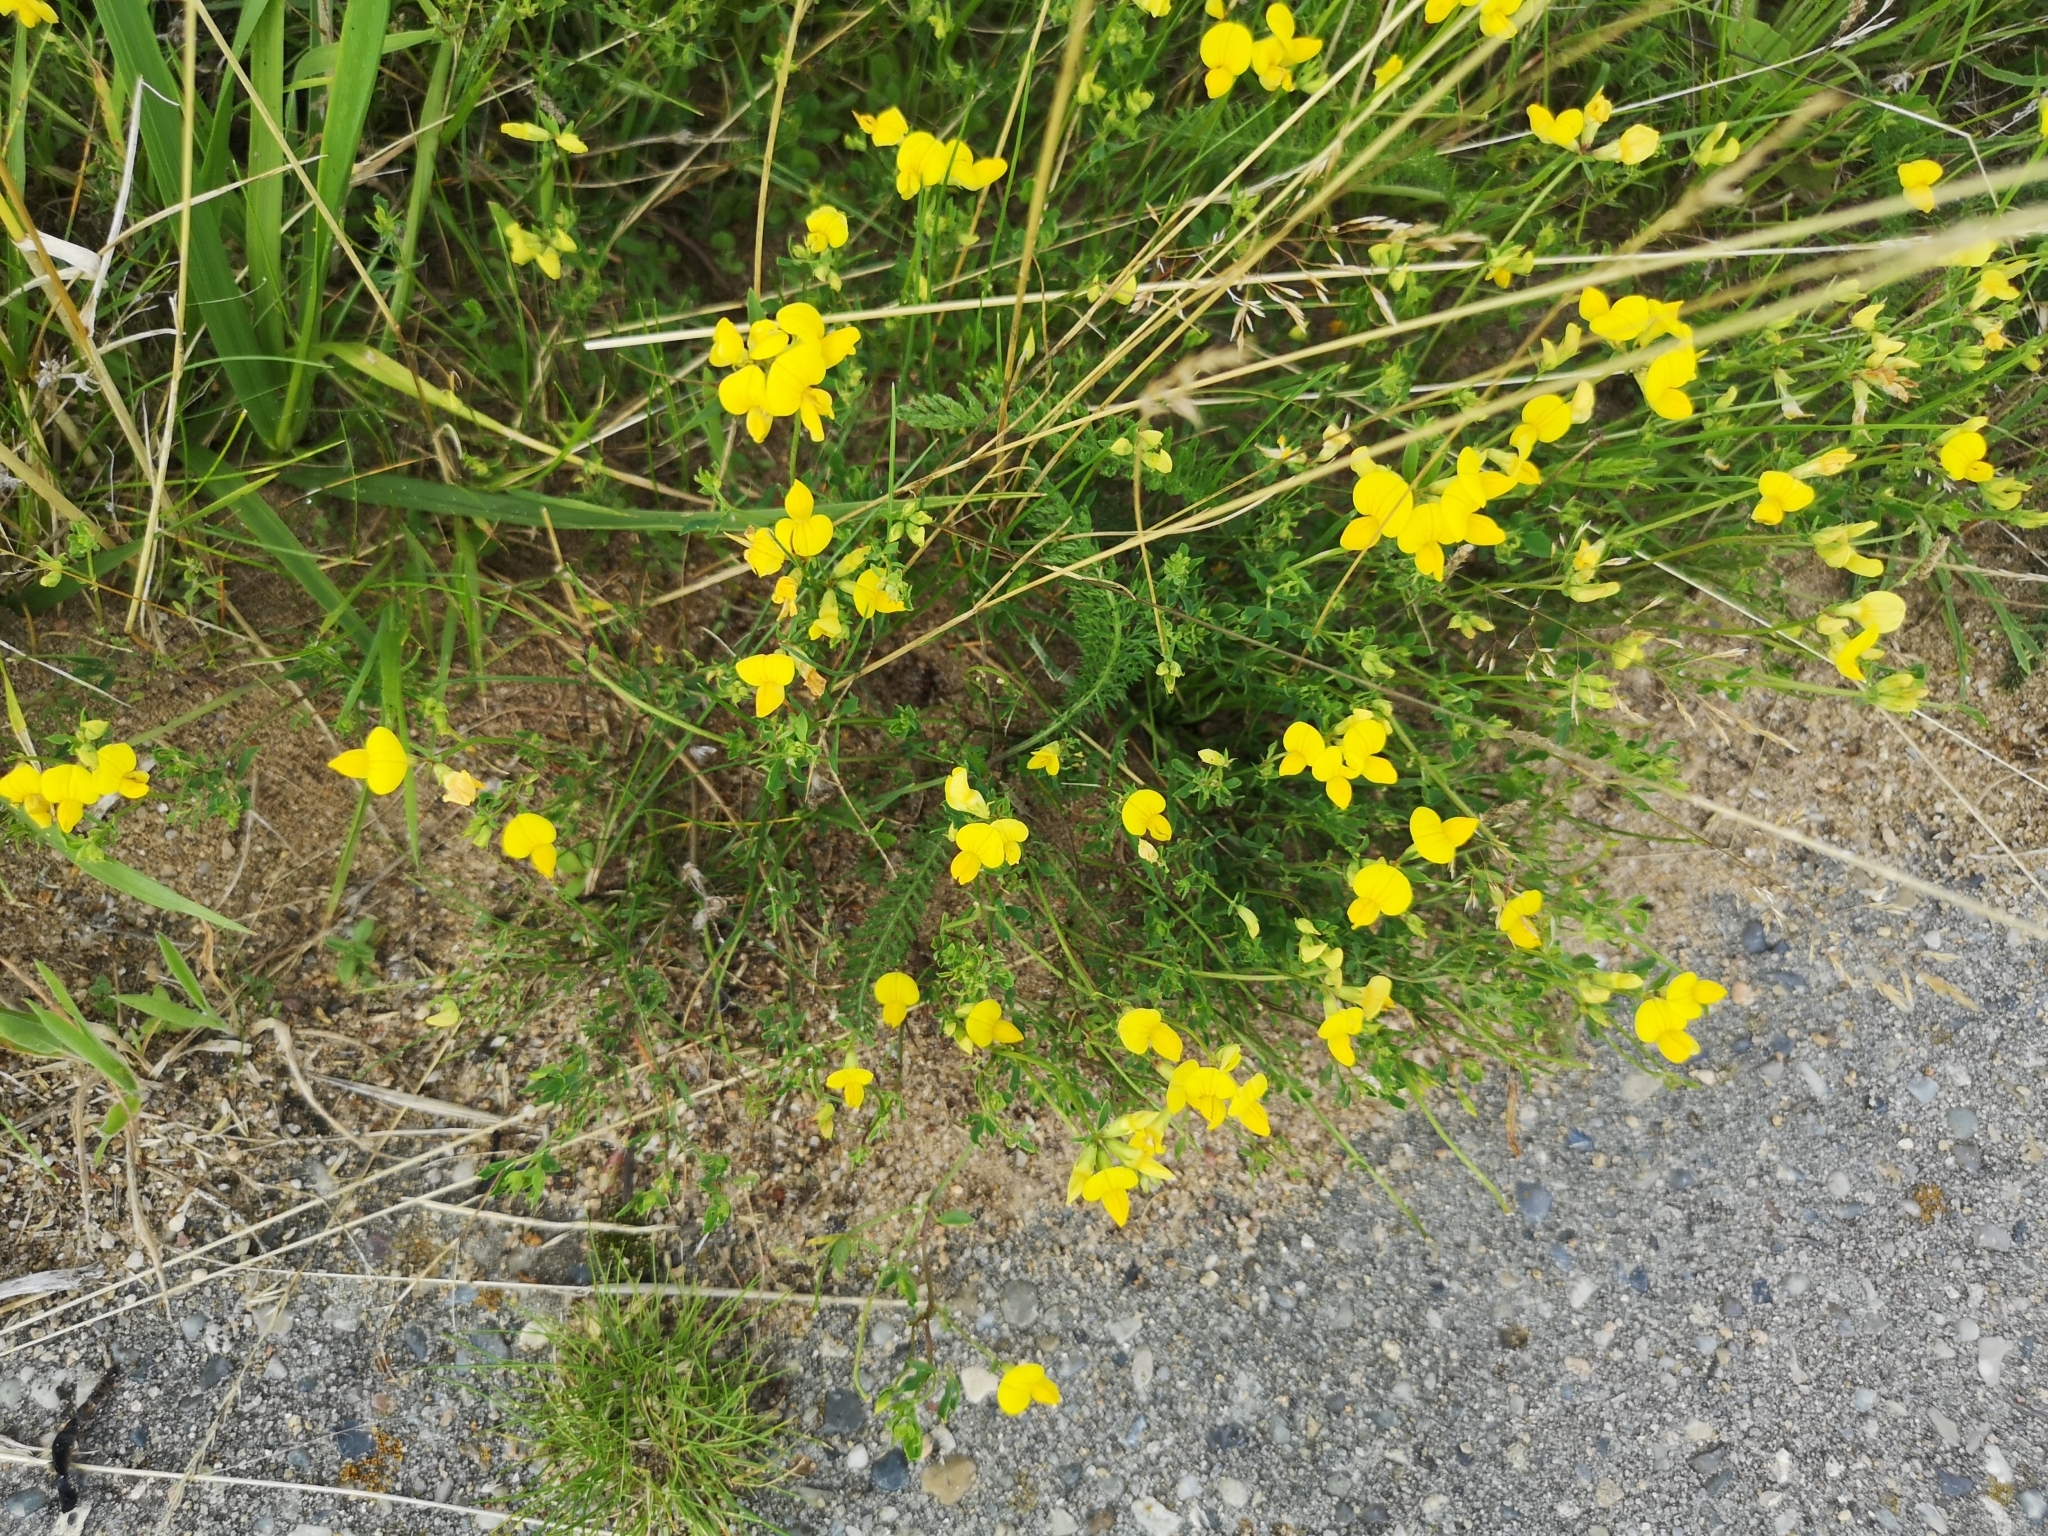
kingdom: Plantae
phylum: Tracheophyta
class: Magnoliopsida
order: Fabales
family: Fabaceae
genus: Lotus
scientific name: Lotus corniculatus
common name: Common bird's-foot-trefoil
